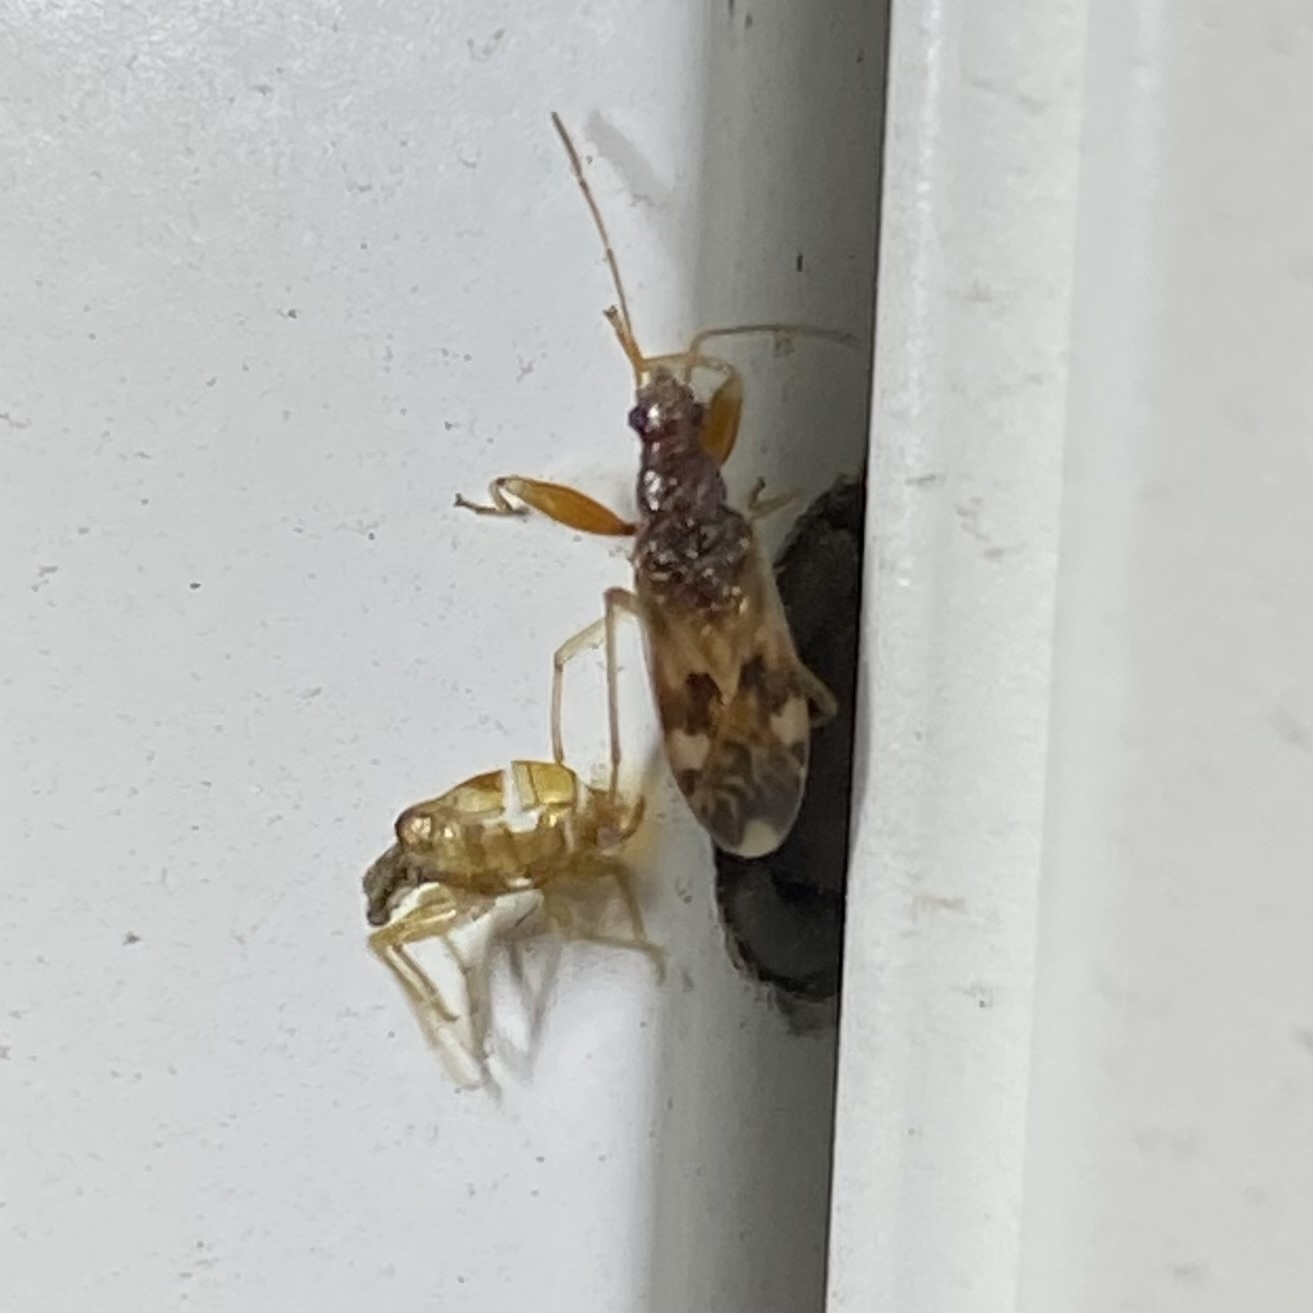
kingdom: Animalia
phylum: Arthropoda
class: Insecta
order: Hemiptera
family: Rhyparochromidae
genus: Pseudopamera
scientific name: Pseudopamera nitidula
